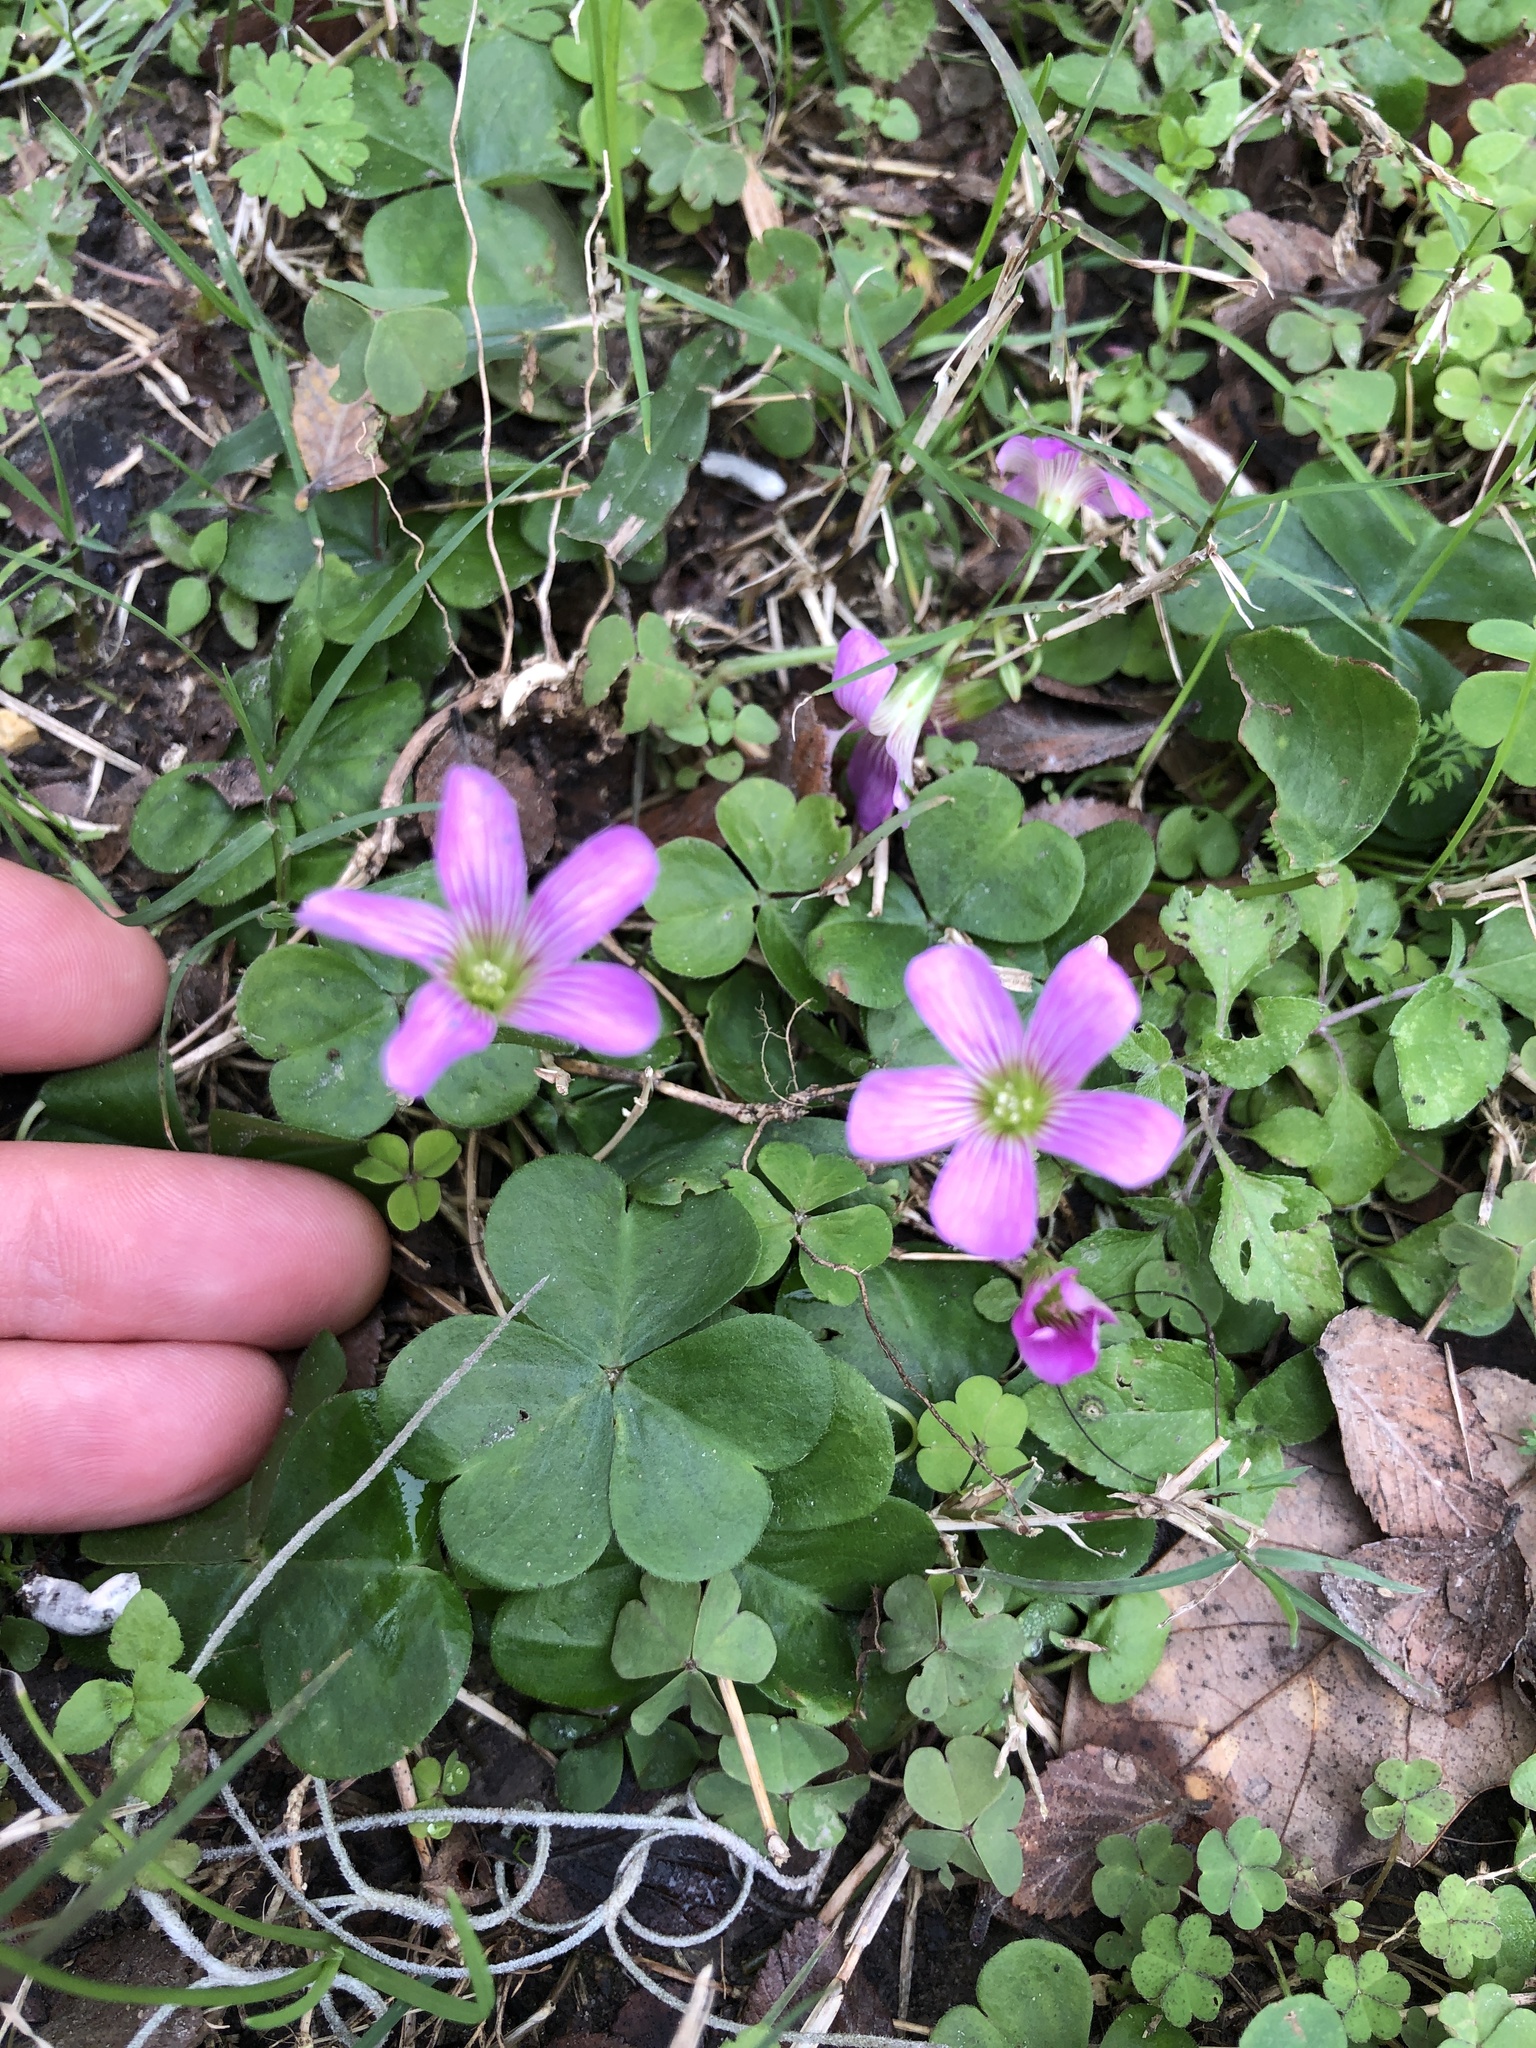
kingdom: Plantae
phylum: Tracheophyta
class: Magnoliopsida
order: Oxalidales
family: Oxalidaceae
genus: Oxalis
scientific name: Oxalis debilis
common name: Large-flowered pink-sorrel
